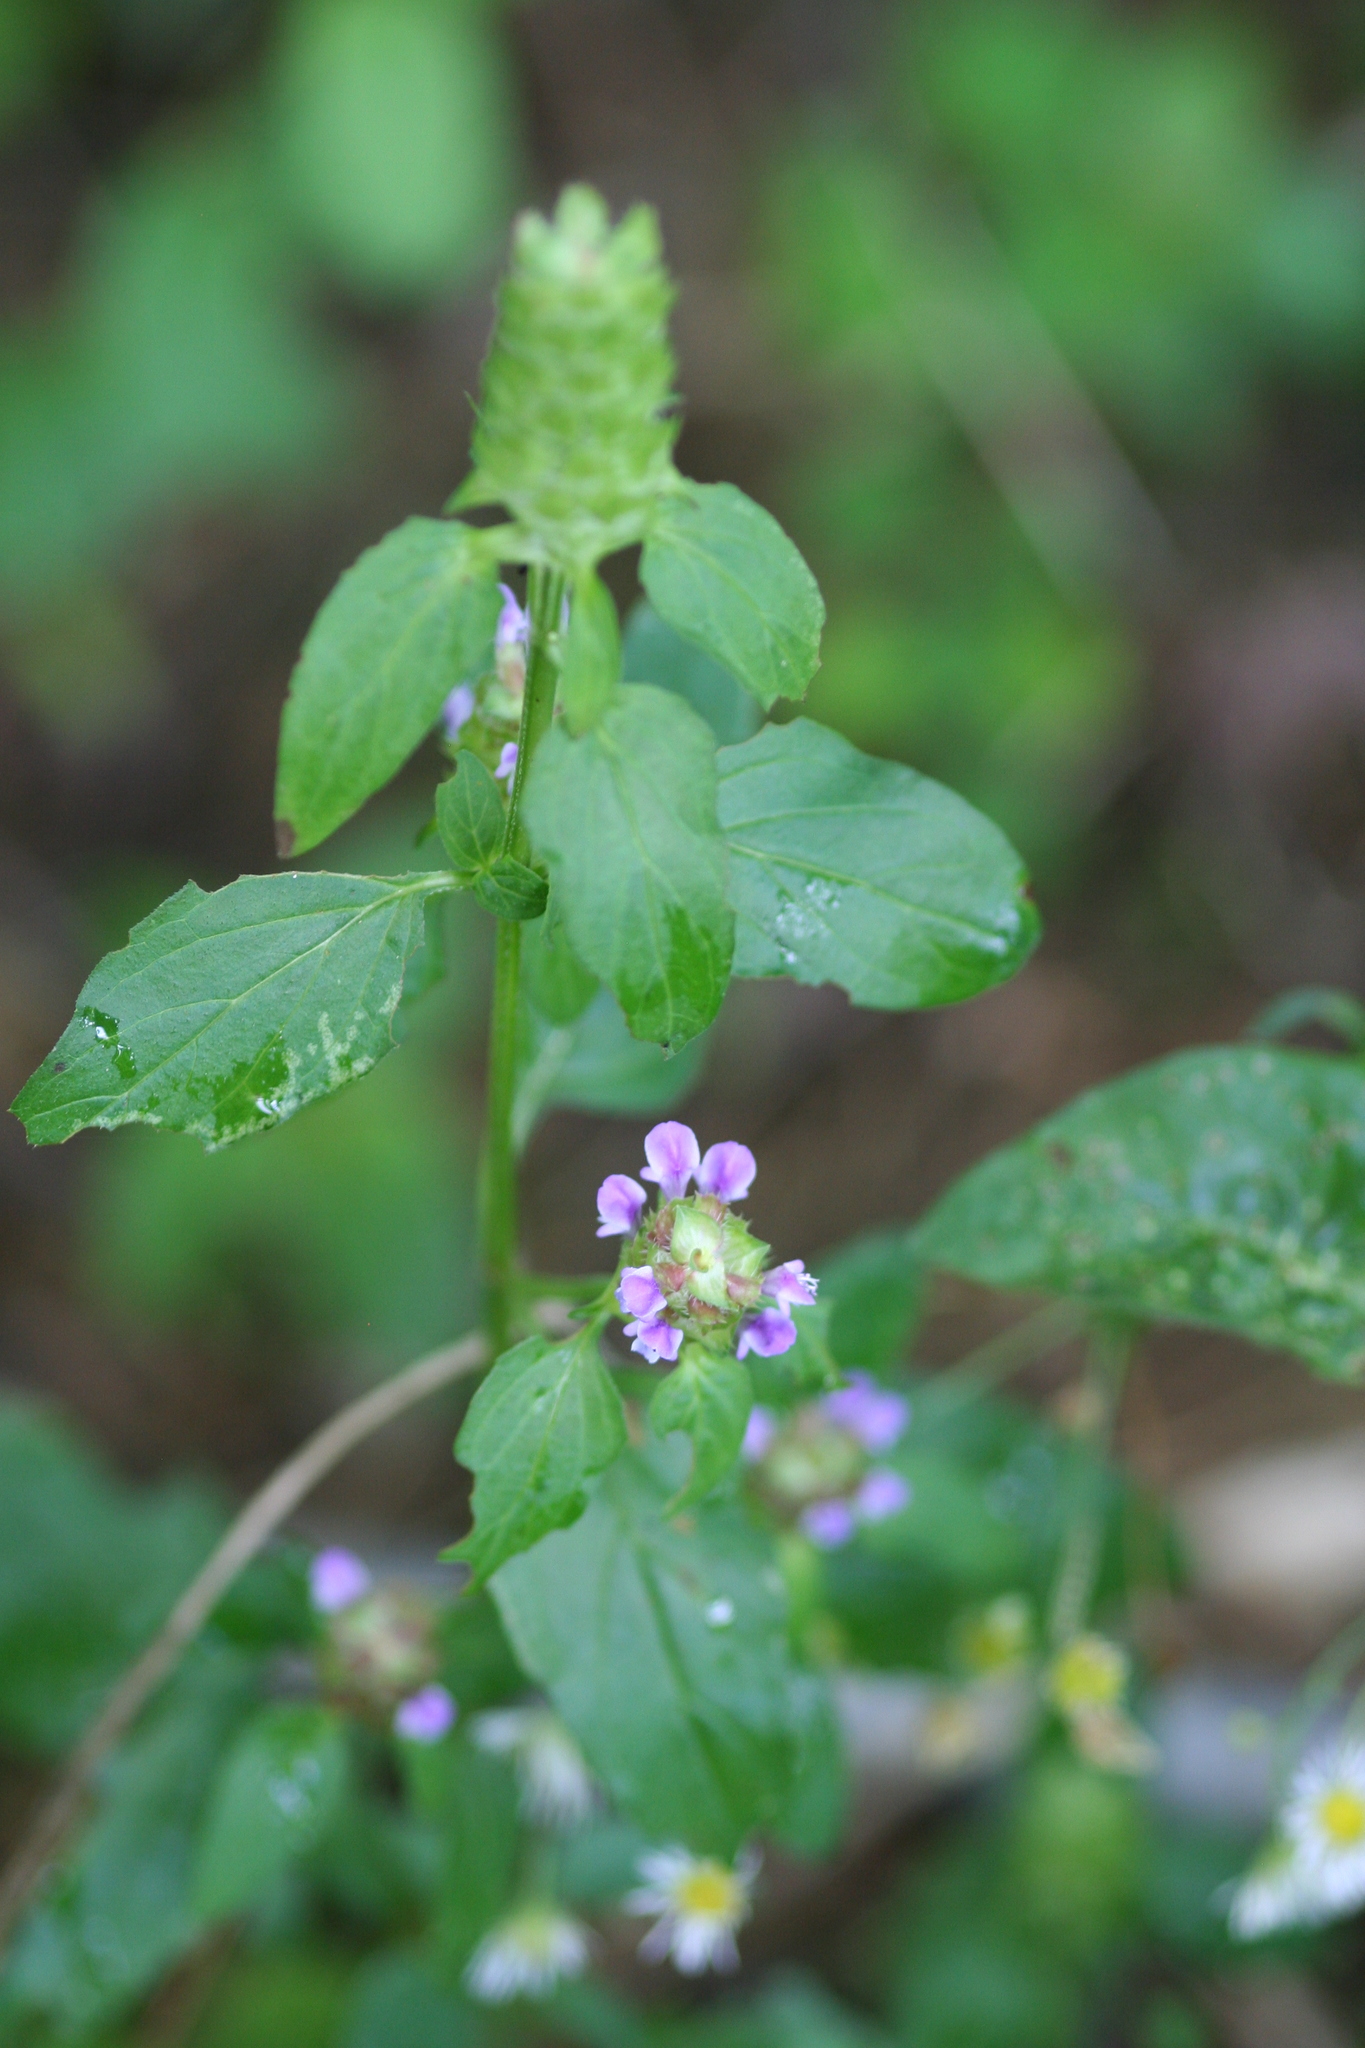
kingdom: Plantae
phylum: Tracheophyta
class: Magnoliopsida
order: Lamiales
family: Lamiaceae
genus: Prunella
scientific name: Prunella vulgaris
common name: Heal-all
